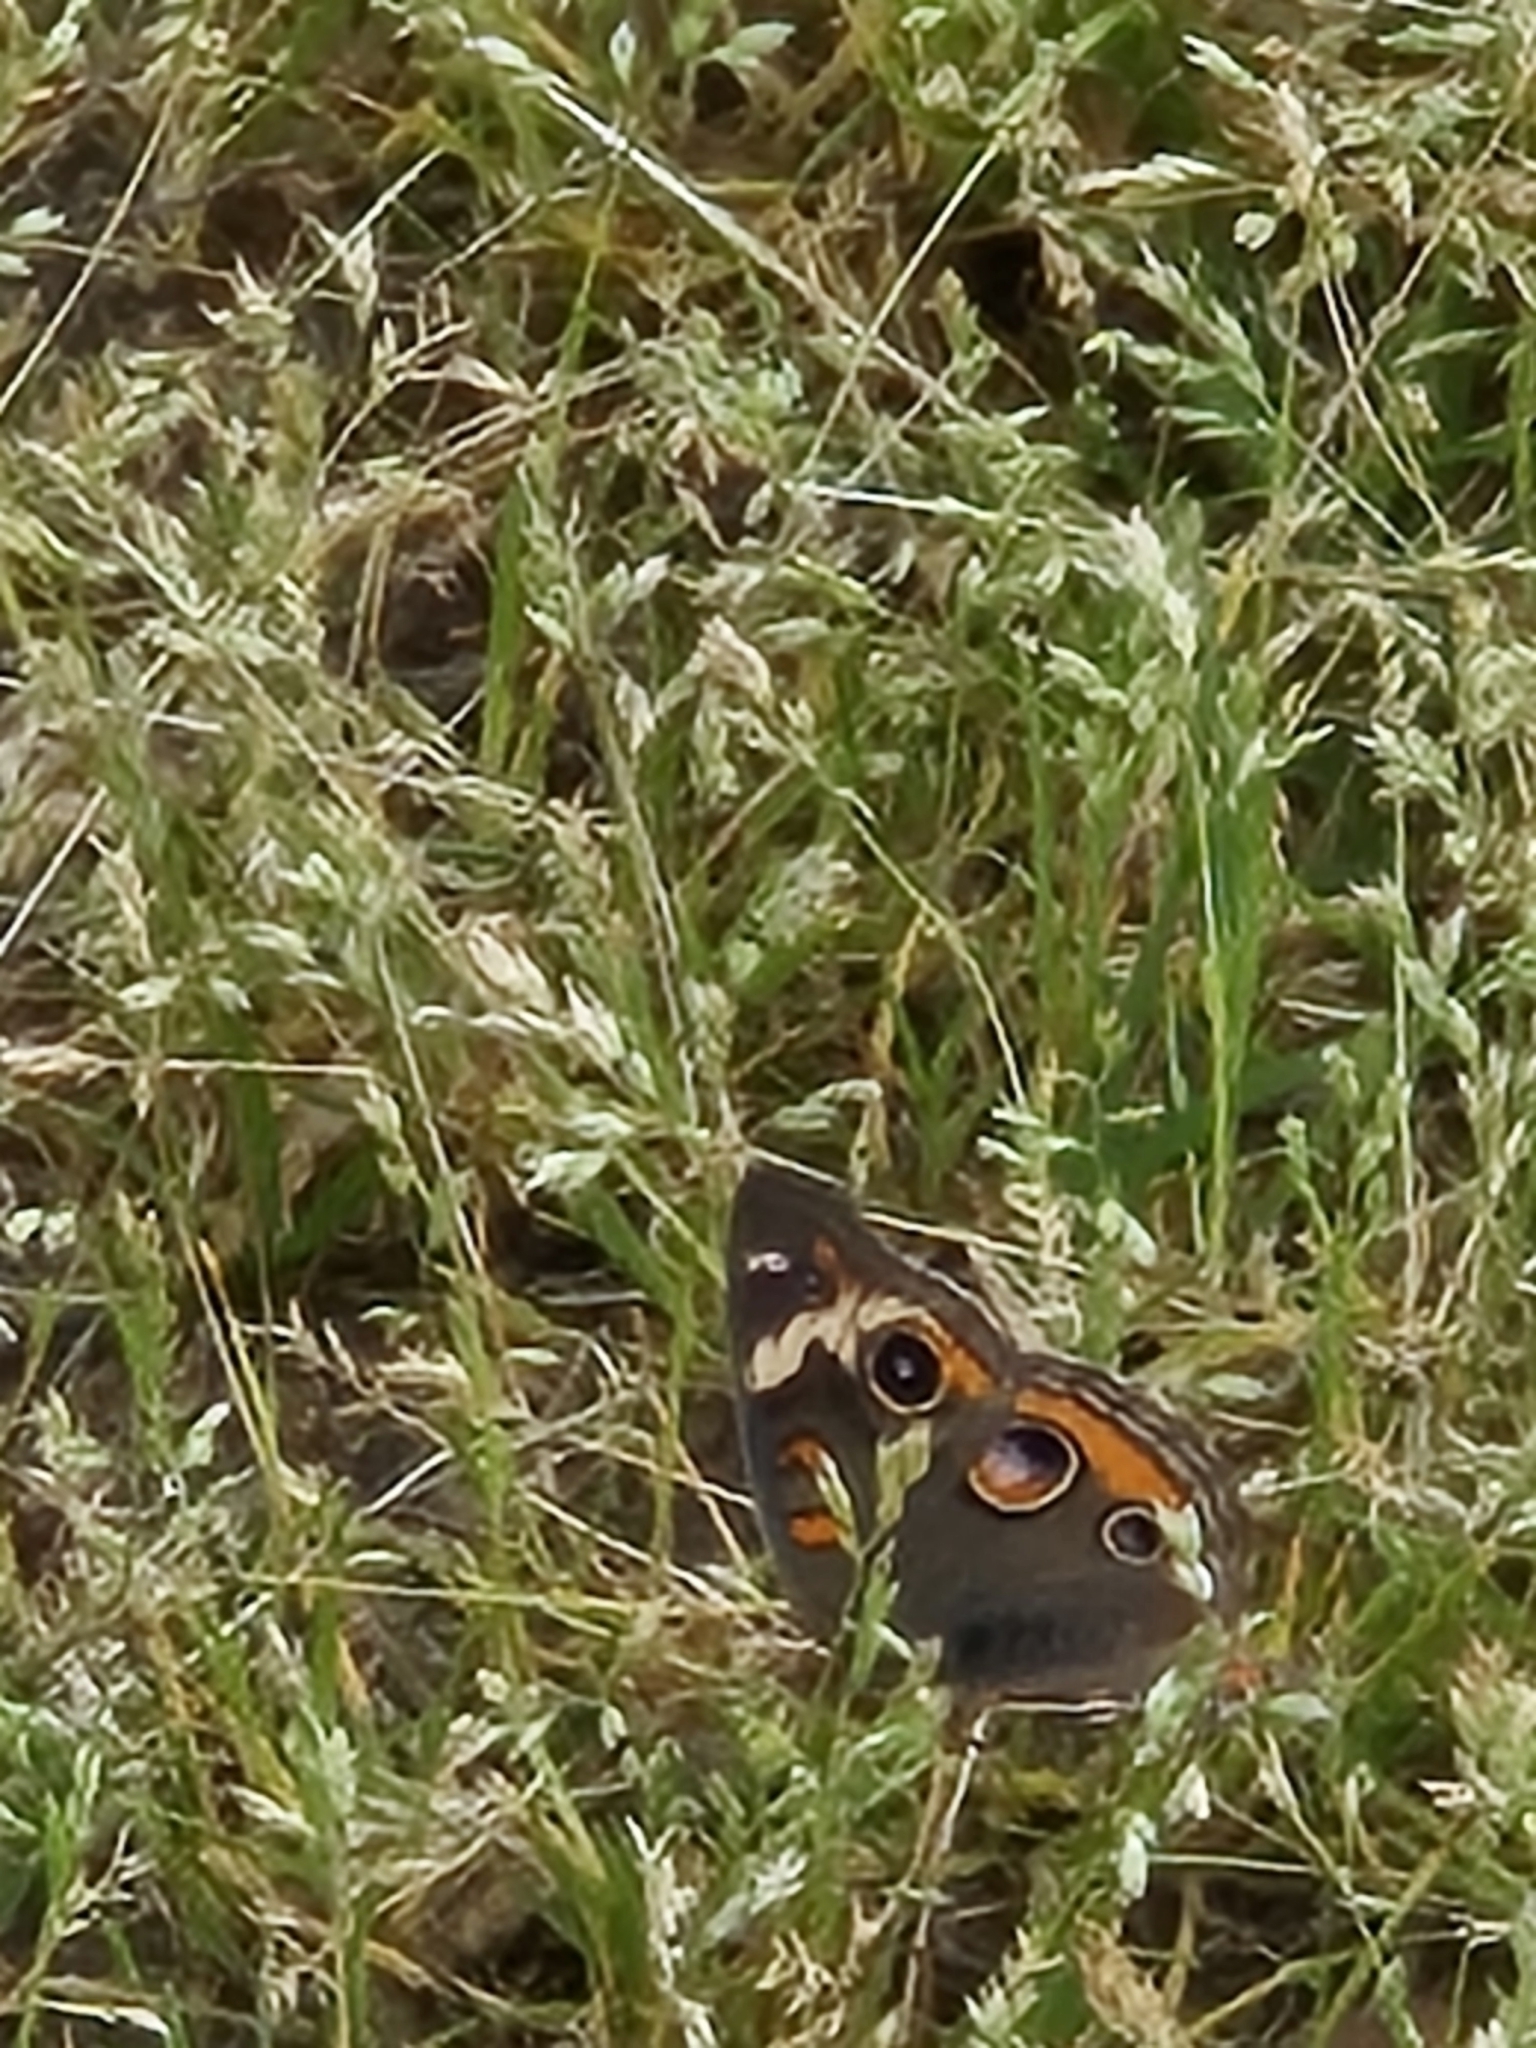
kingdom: Animalia
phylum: Arthropoda
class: Insecta
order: Lepidoptera
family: Nymphalidae
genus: Junonia
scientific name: Junonia coenia
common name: Common buckeye
